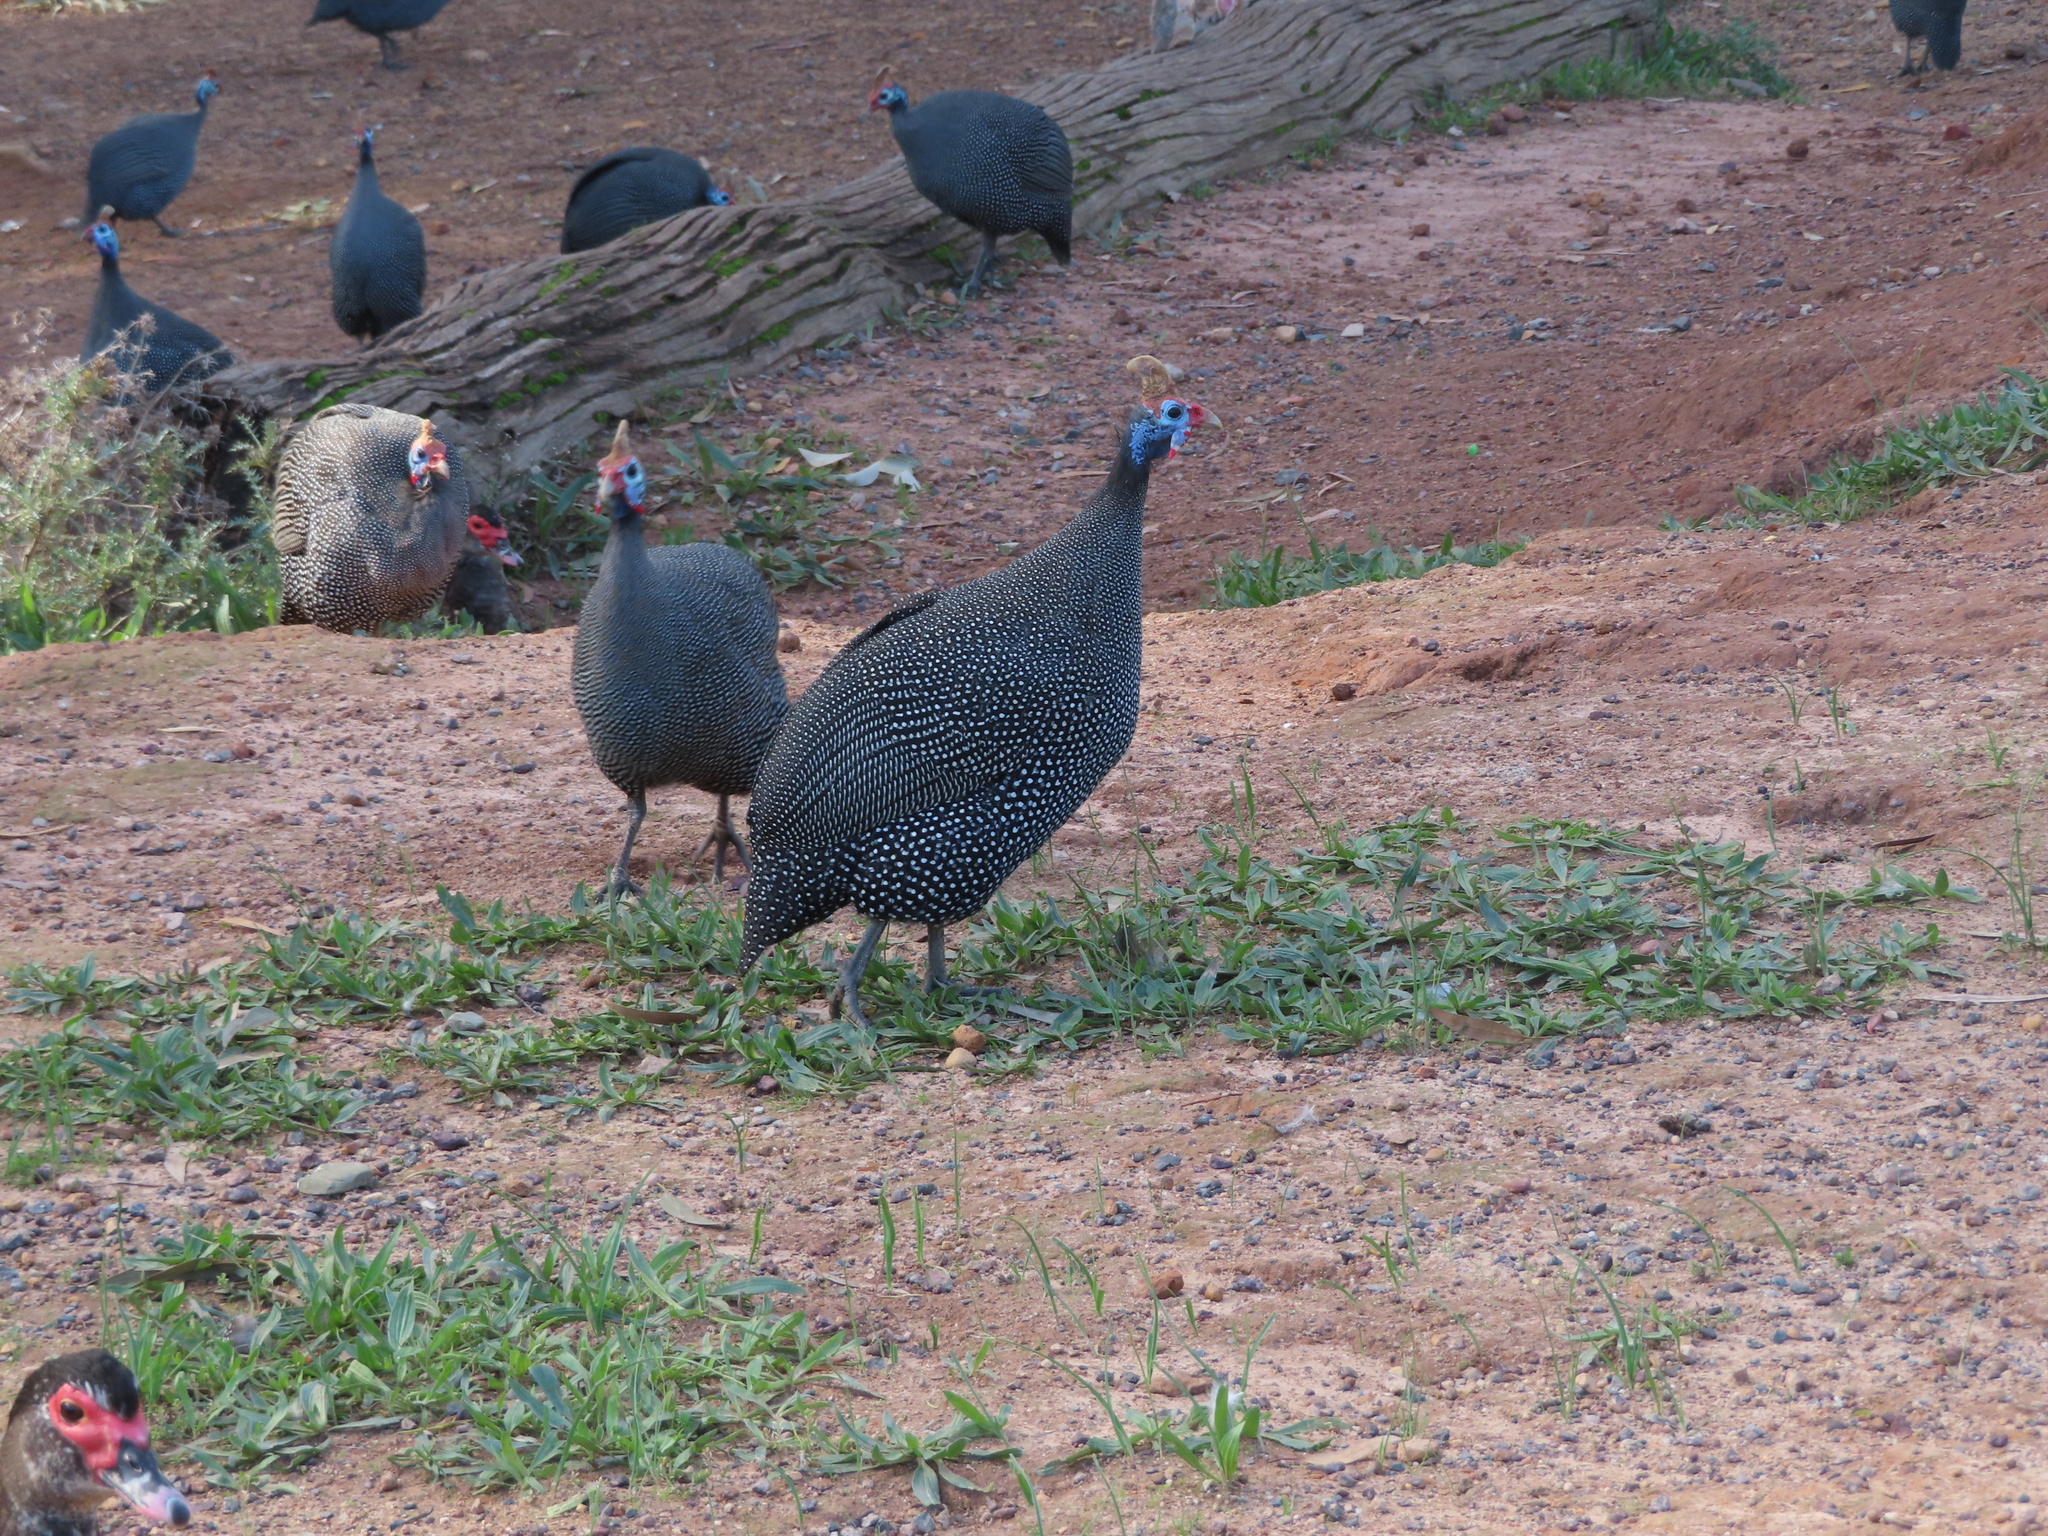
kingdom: Animalia
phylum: Chordata
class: Aves
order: Galliformes
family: Numididae
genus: Numida
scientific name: Numida meleagris
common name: Helmeted guineafowl
